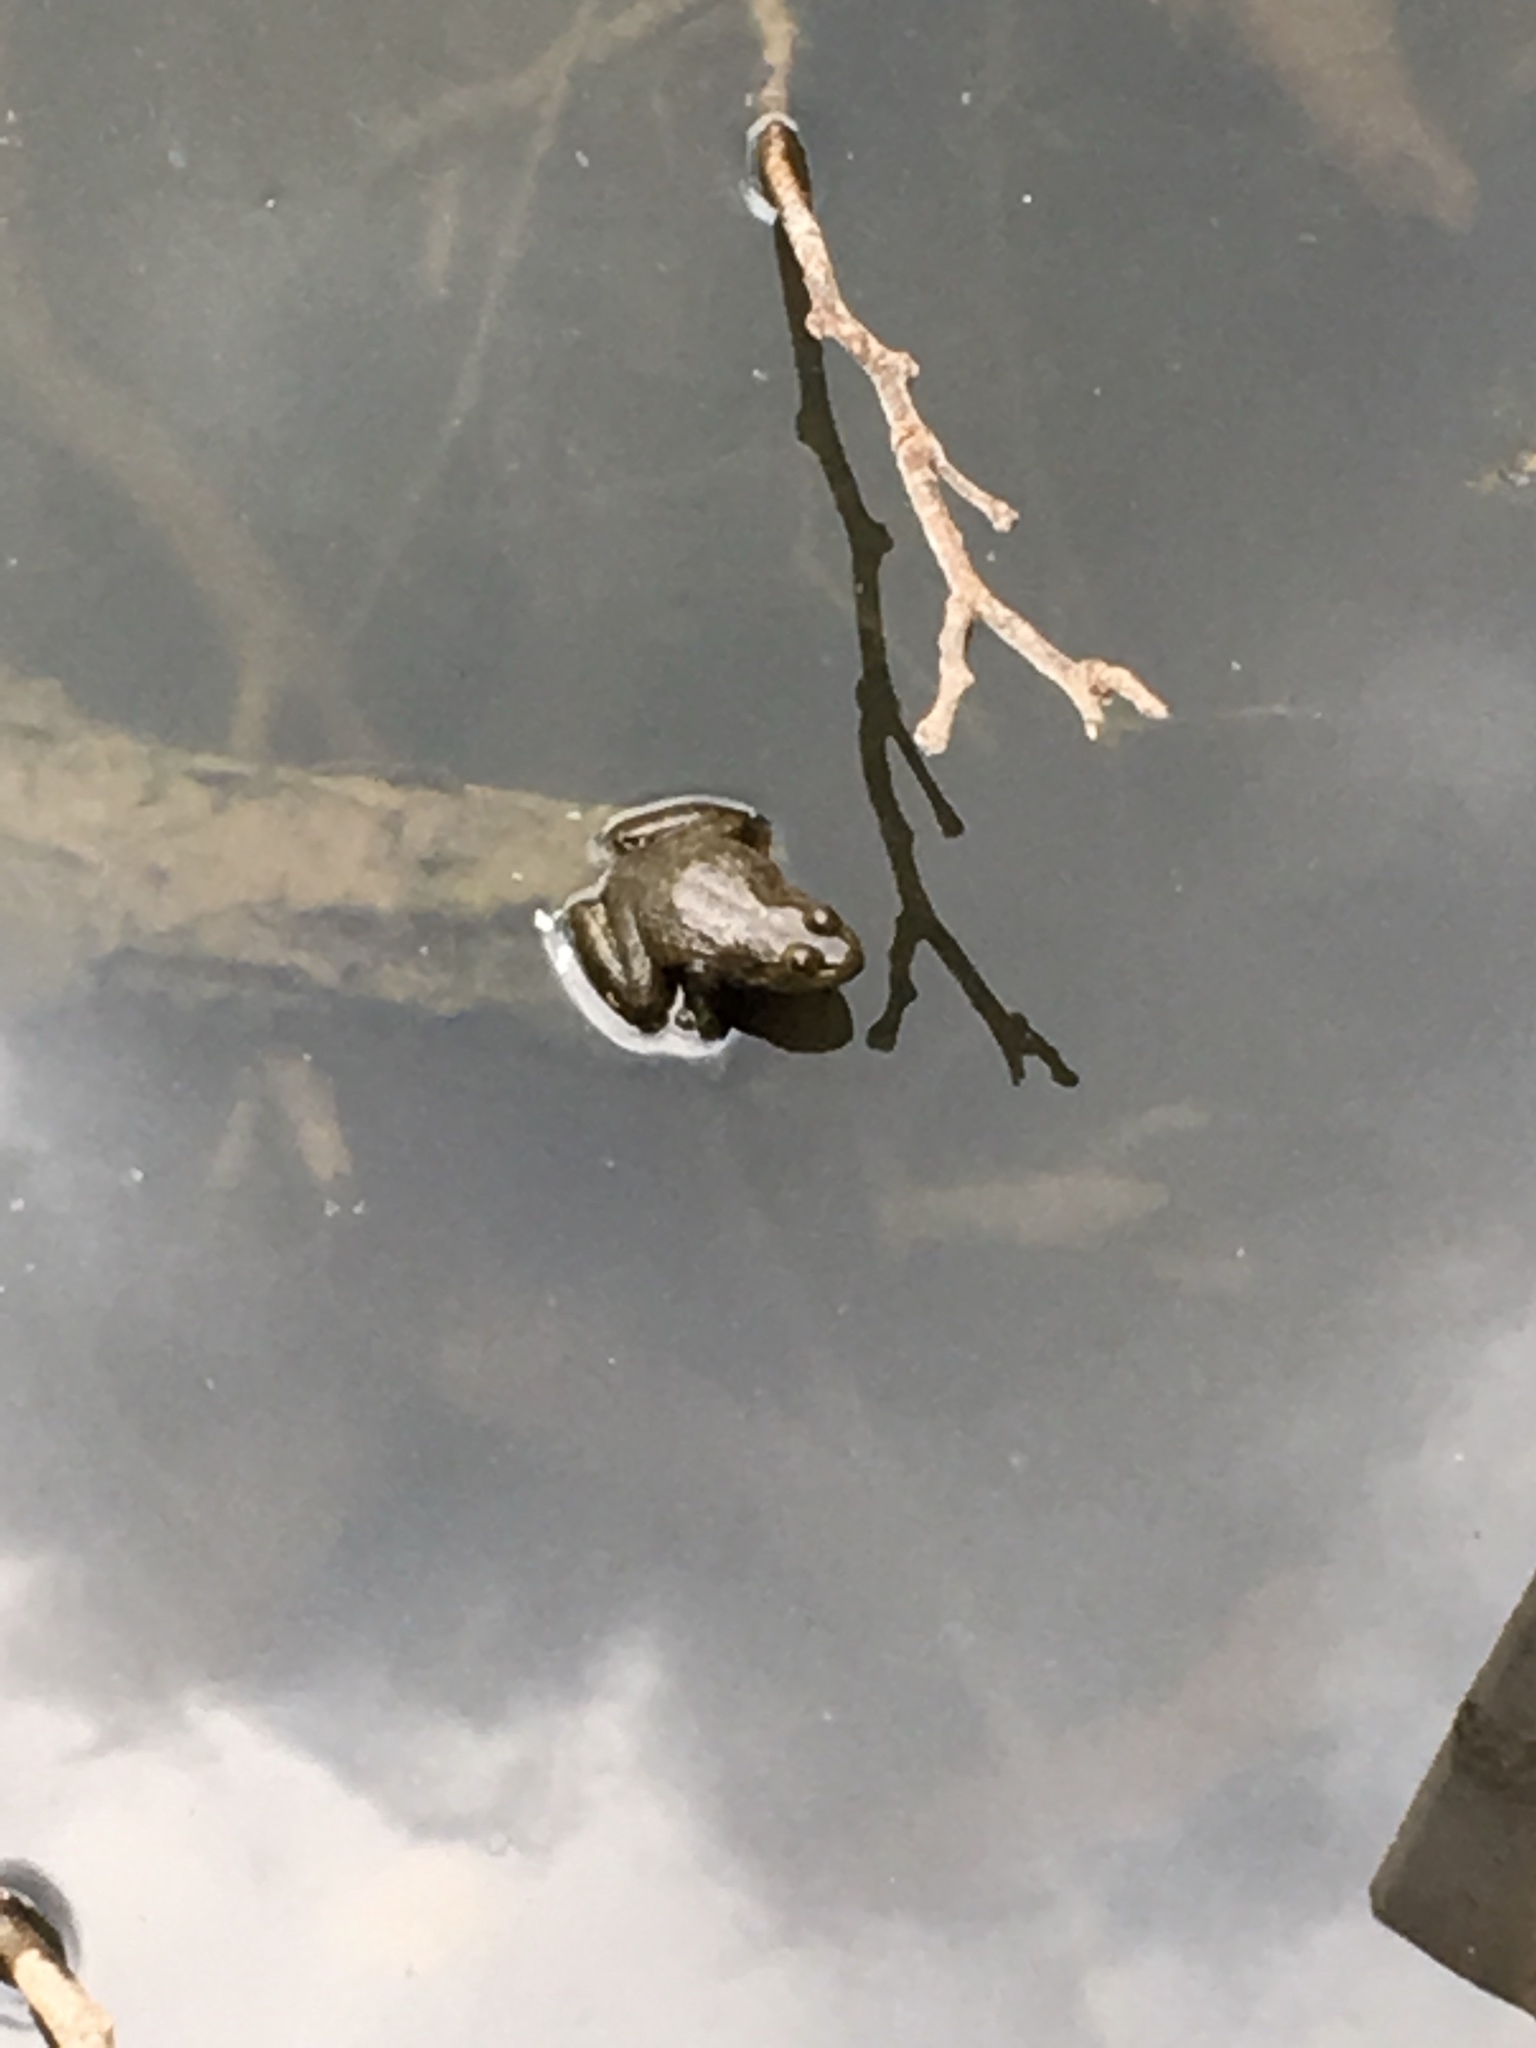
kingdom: Animalia
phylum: Chordata
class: Amphibia
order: Anura
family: Ranidae
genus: Lithobates
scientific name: Lithobates clamitans
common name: Green frog
